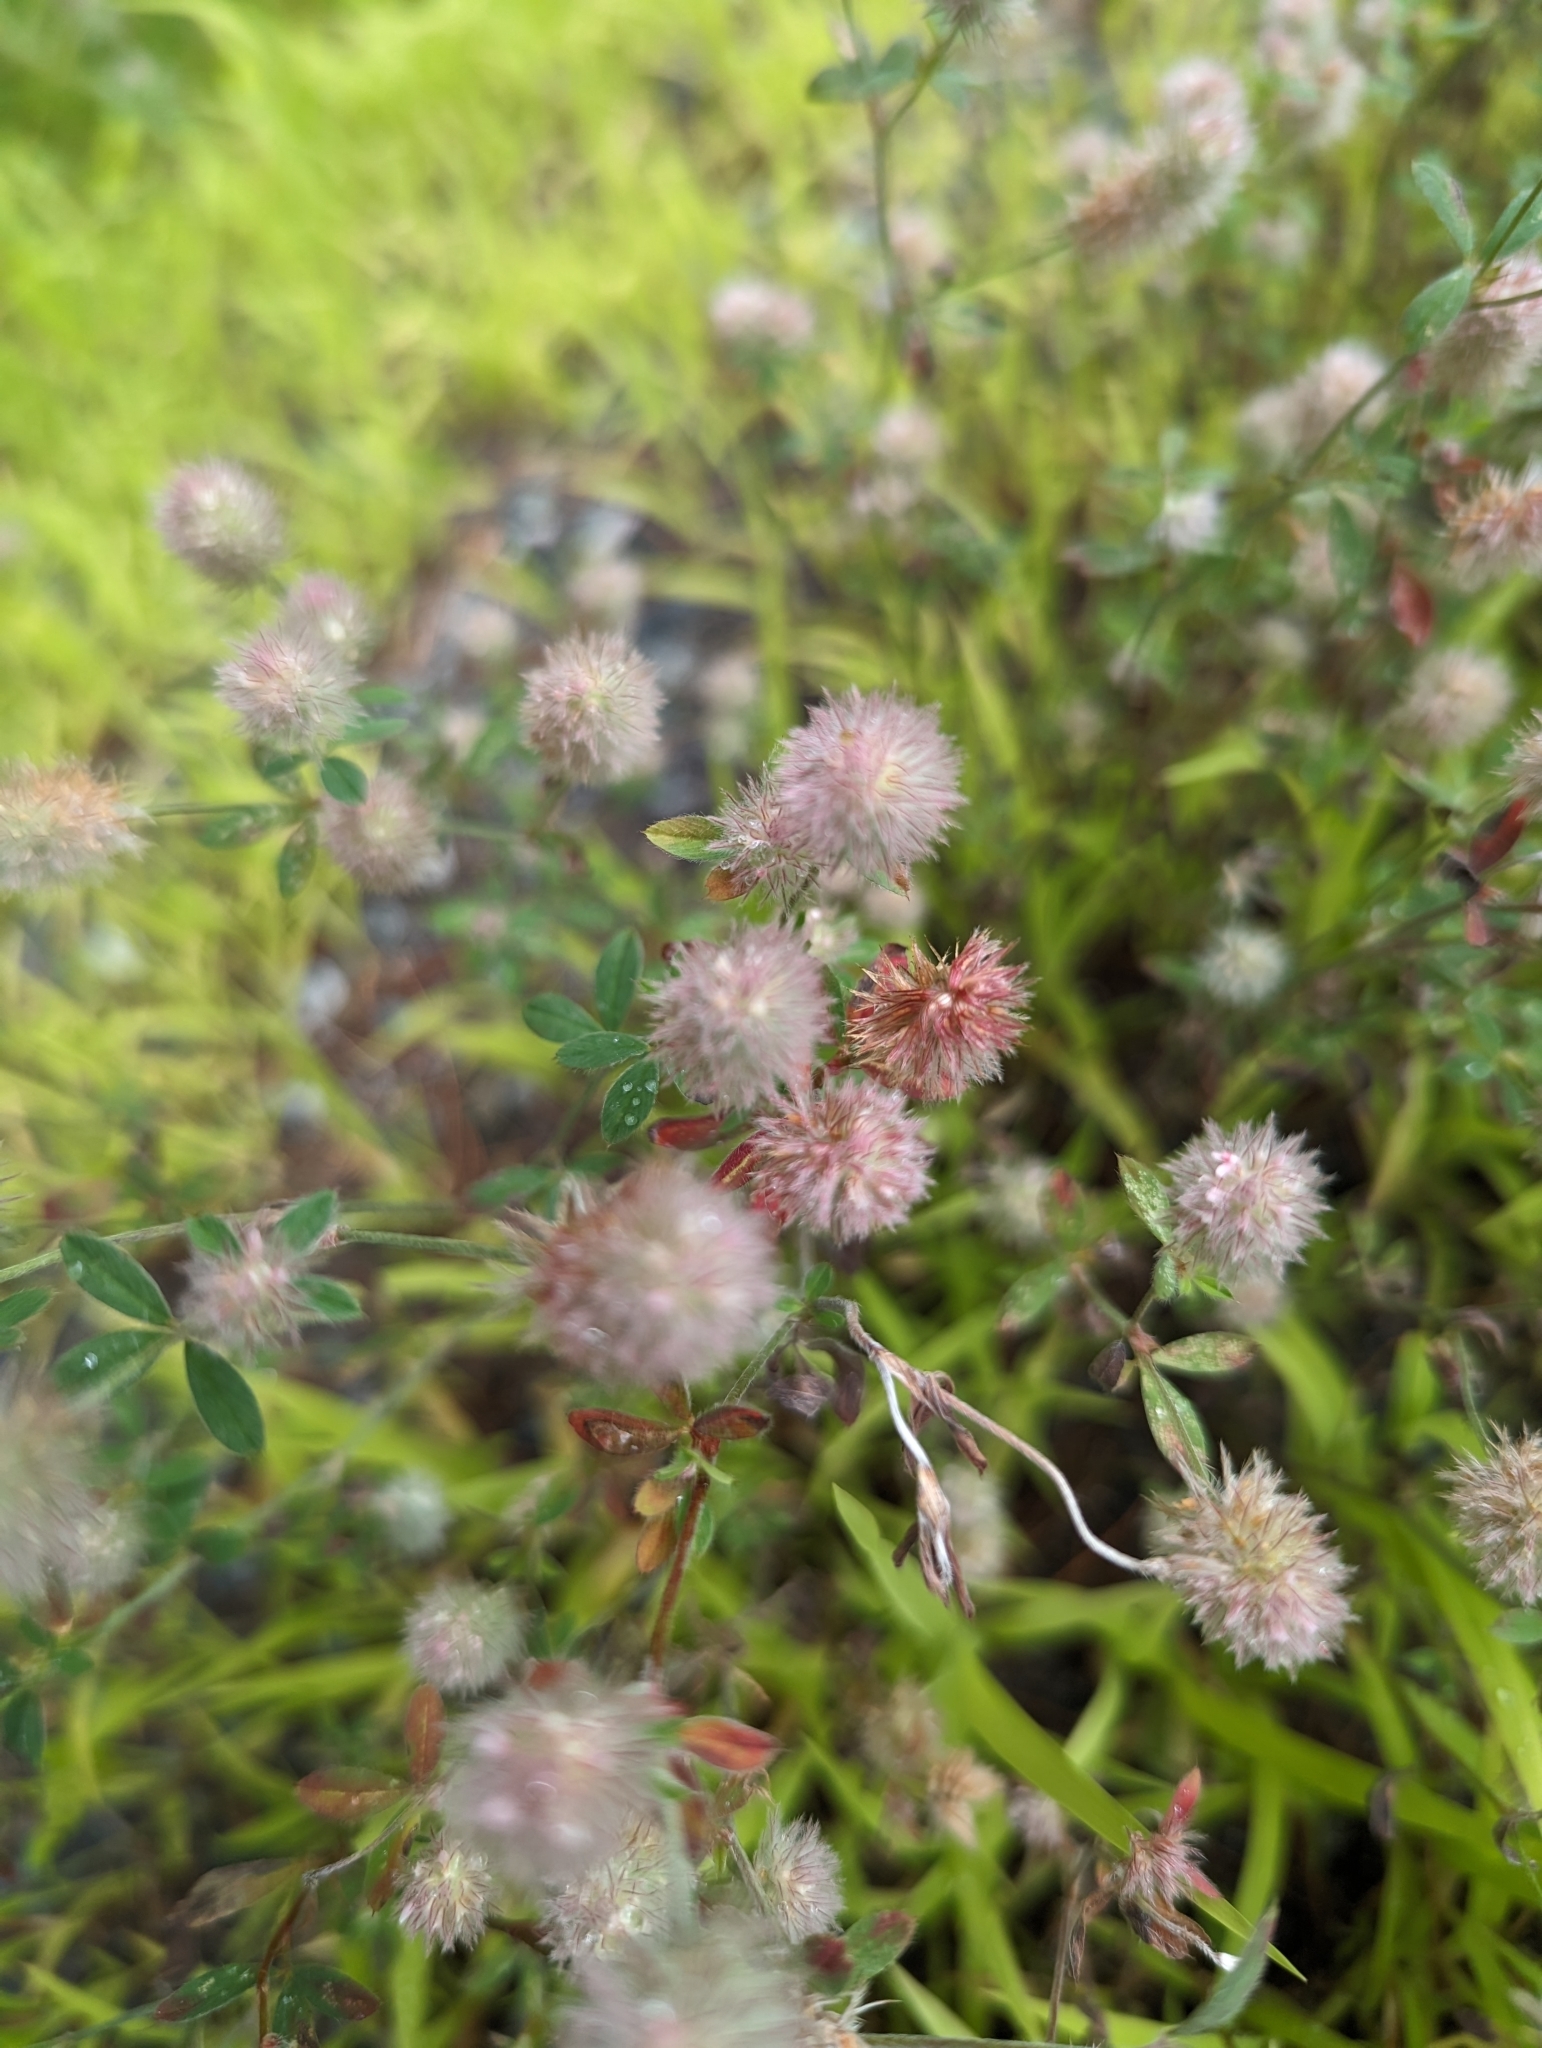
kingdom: Plantae
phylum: Tracheophyta
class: Magnoliopsida
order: Fabales
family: Fabaceae
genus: Trifolium
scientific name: Trifolium arvense
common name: Hare's-foot clover
